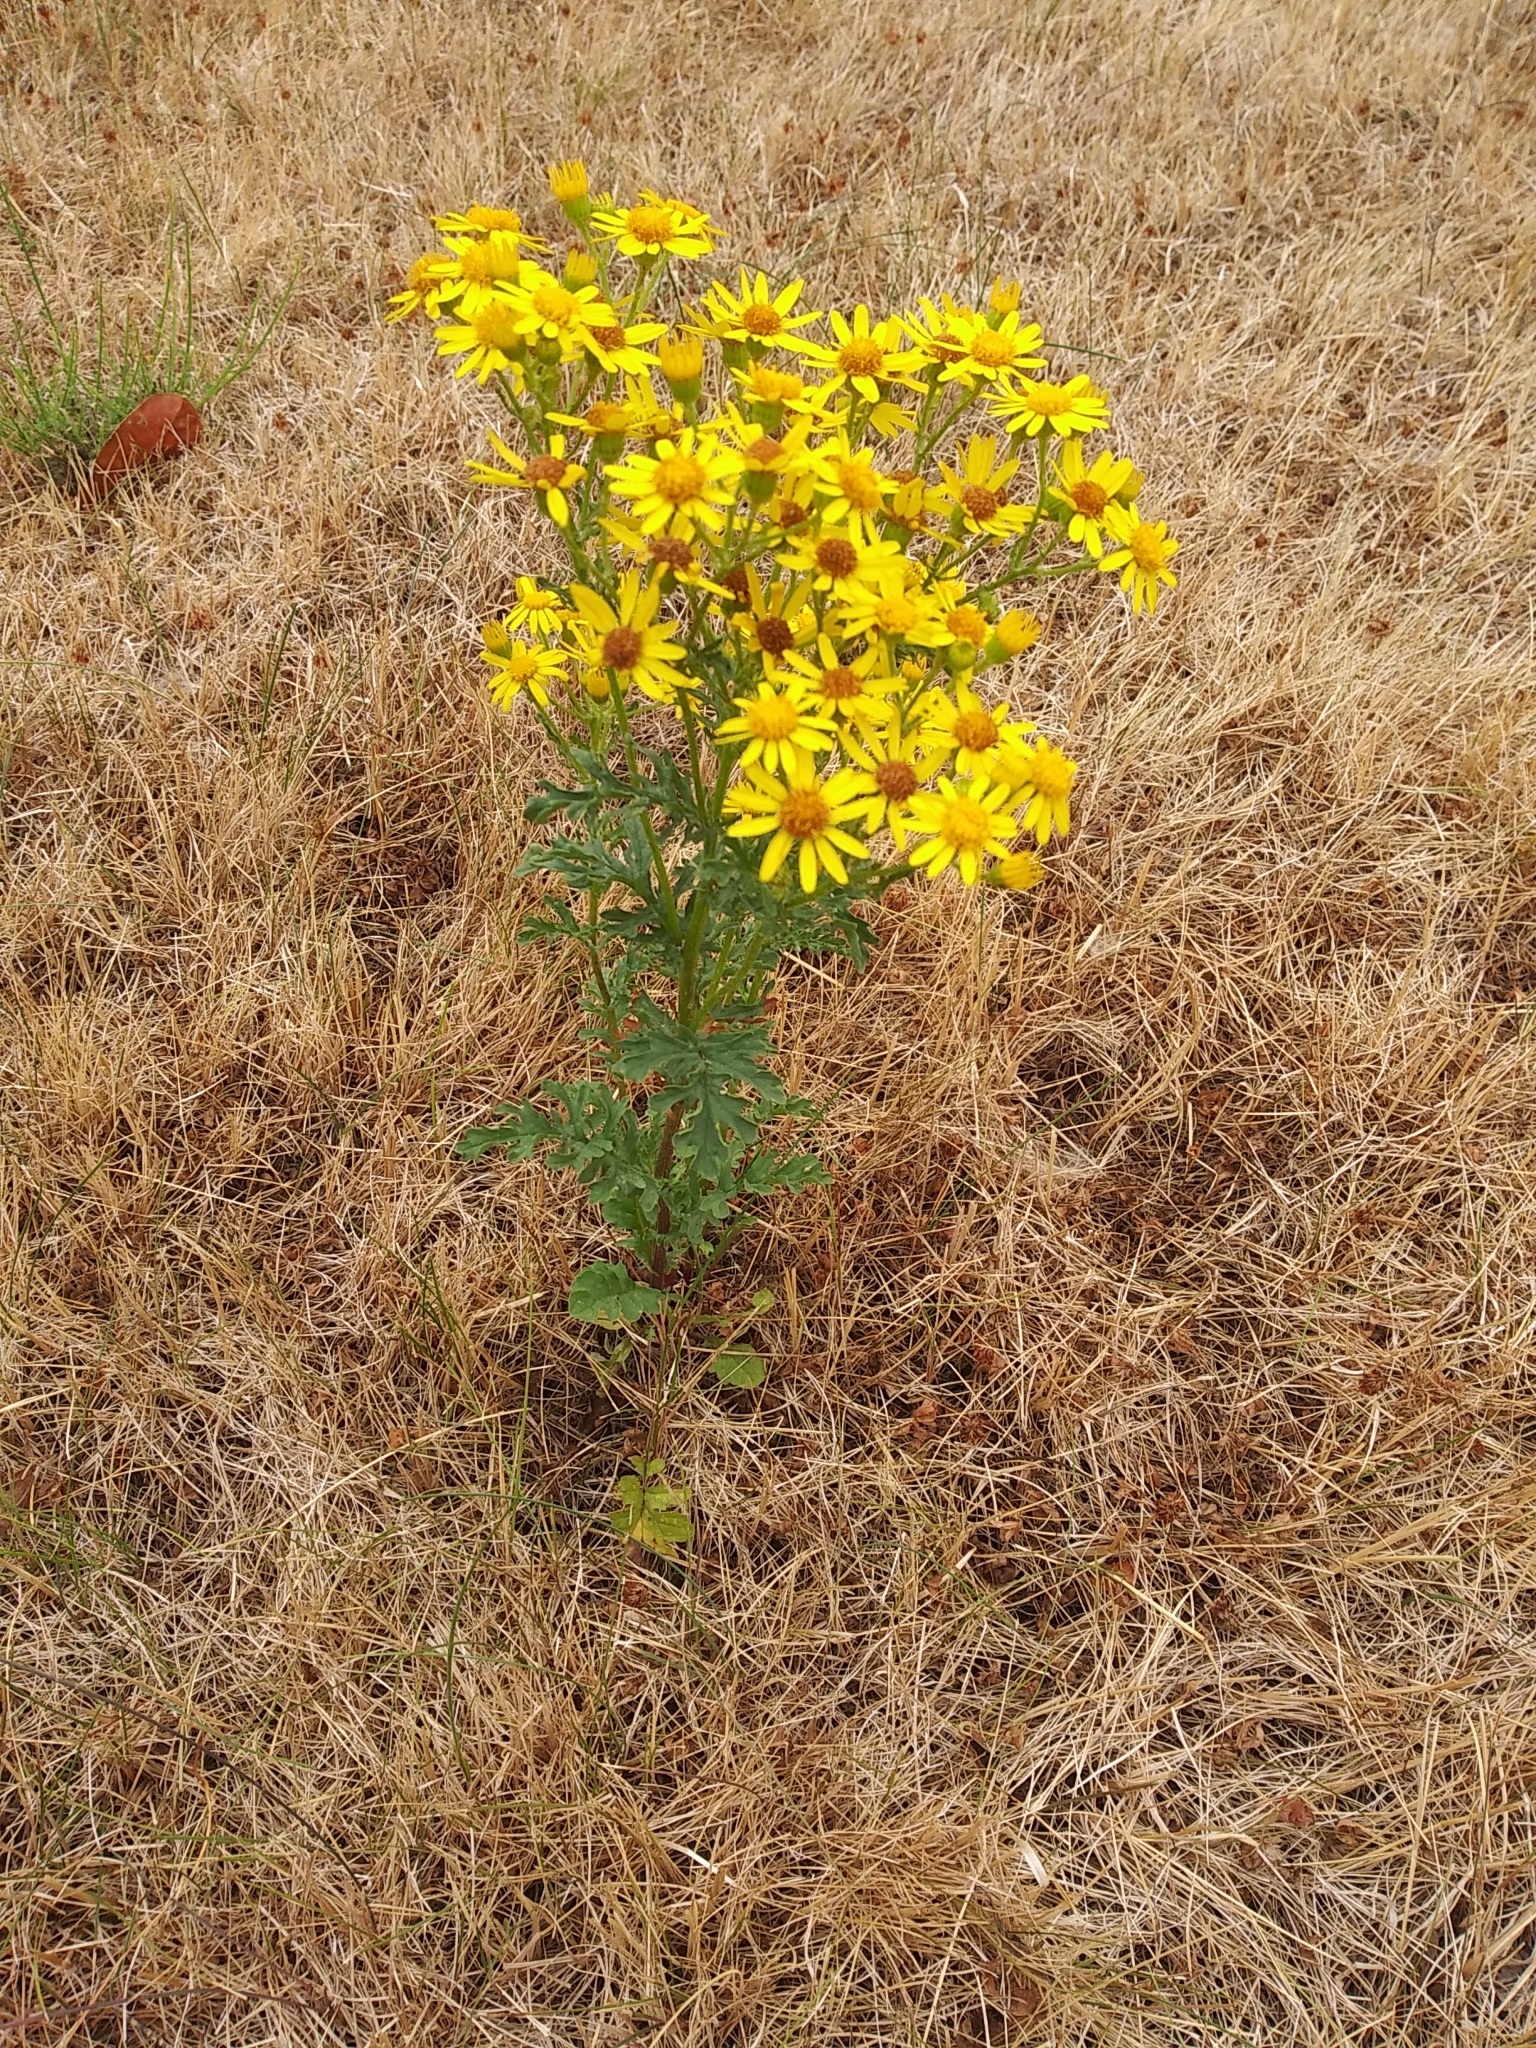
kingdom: Plantae
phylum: Tracheophyta
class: Magnoliopsida
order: Asterales
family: Asteraceae
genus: Jacobaea
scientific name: Jacobaea vulgaris
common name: Stinking willie
